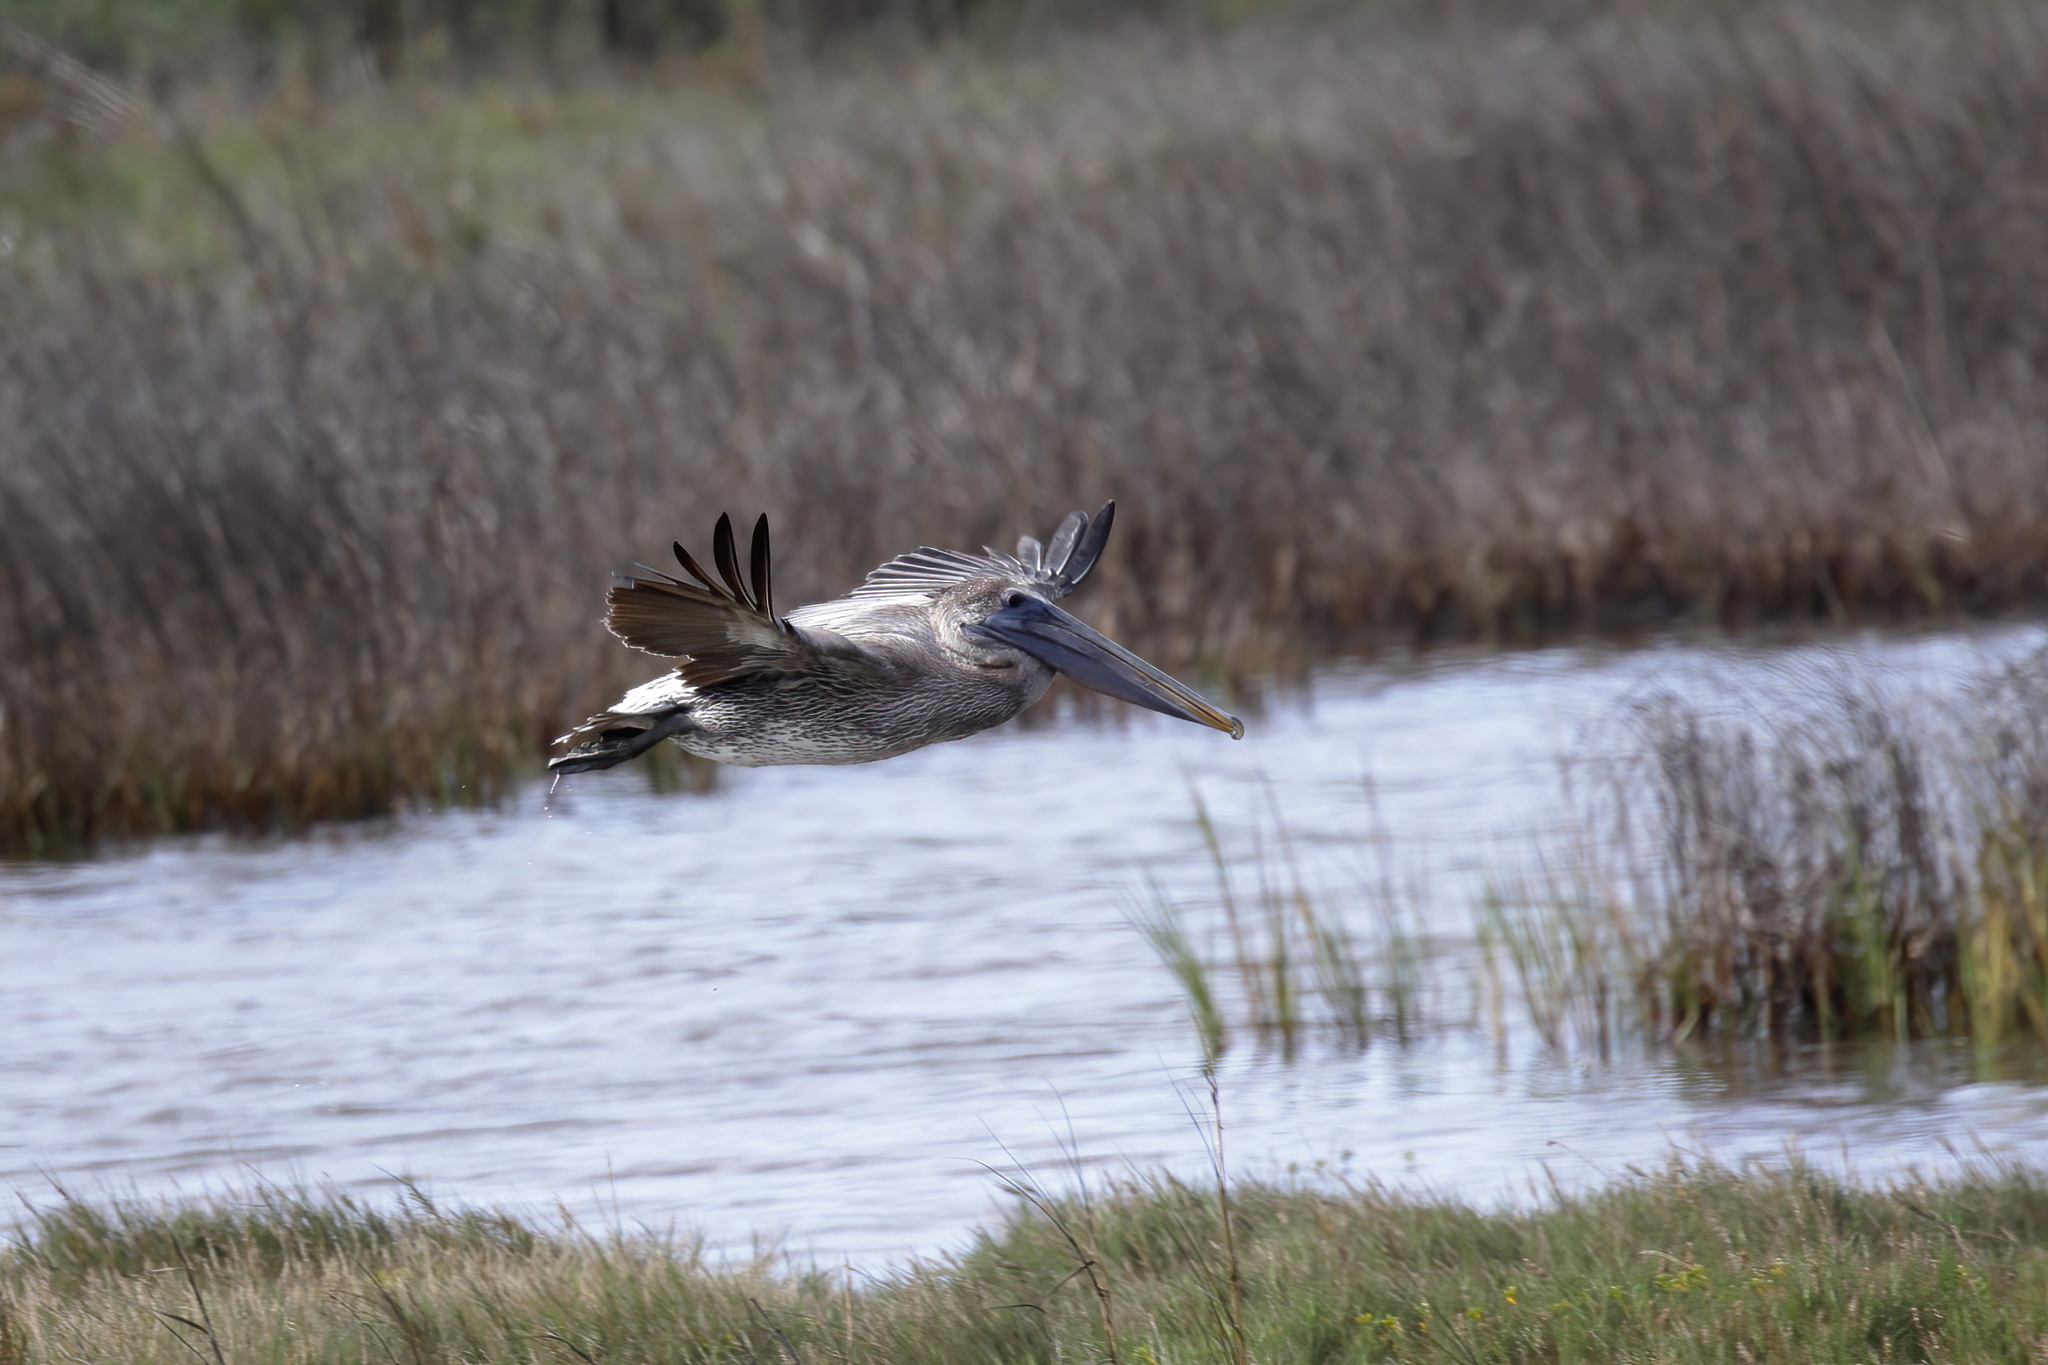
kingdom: Animalia
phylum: Chordata
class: Aves
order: Pelecaniformes
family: Pelecanidae
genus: Pelecanus
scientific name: Pelecanus occidentalis
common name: Brown pelican
